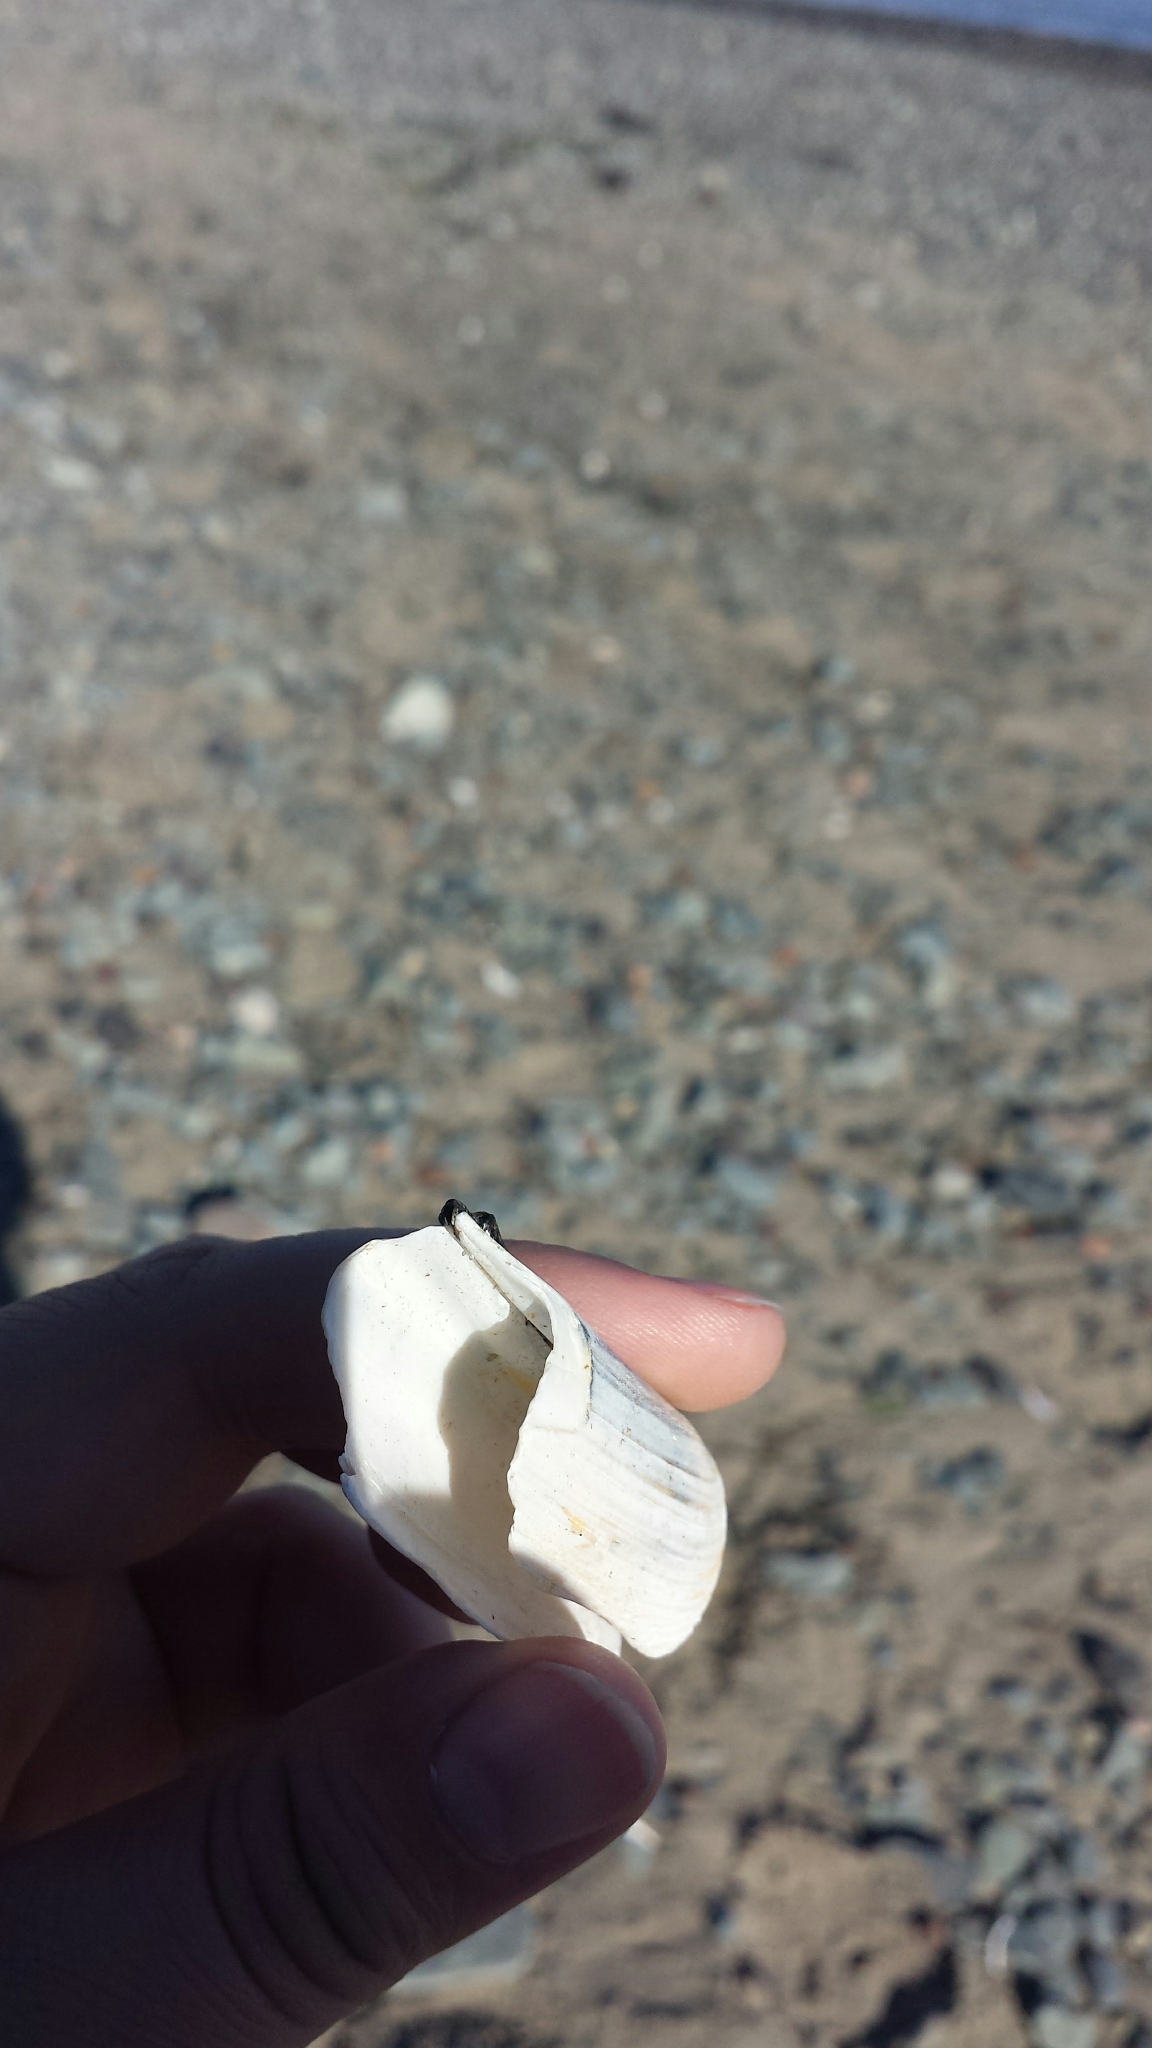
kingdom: Animalia
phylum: Mollusca
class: Bivalvia
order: Adapedonta
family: Pharidae
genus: Ensis
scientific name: Ensis leei
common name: American jack knife clam
